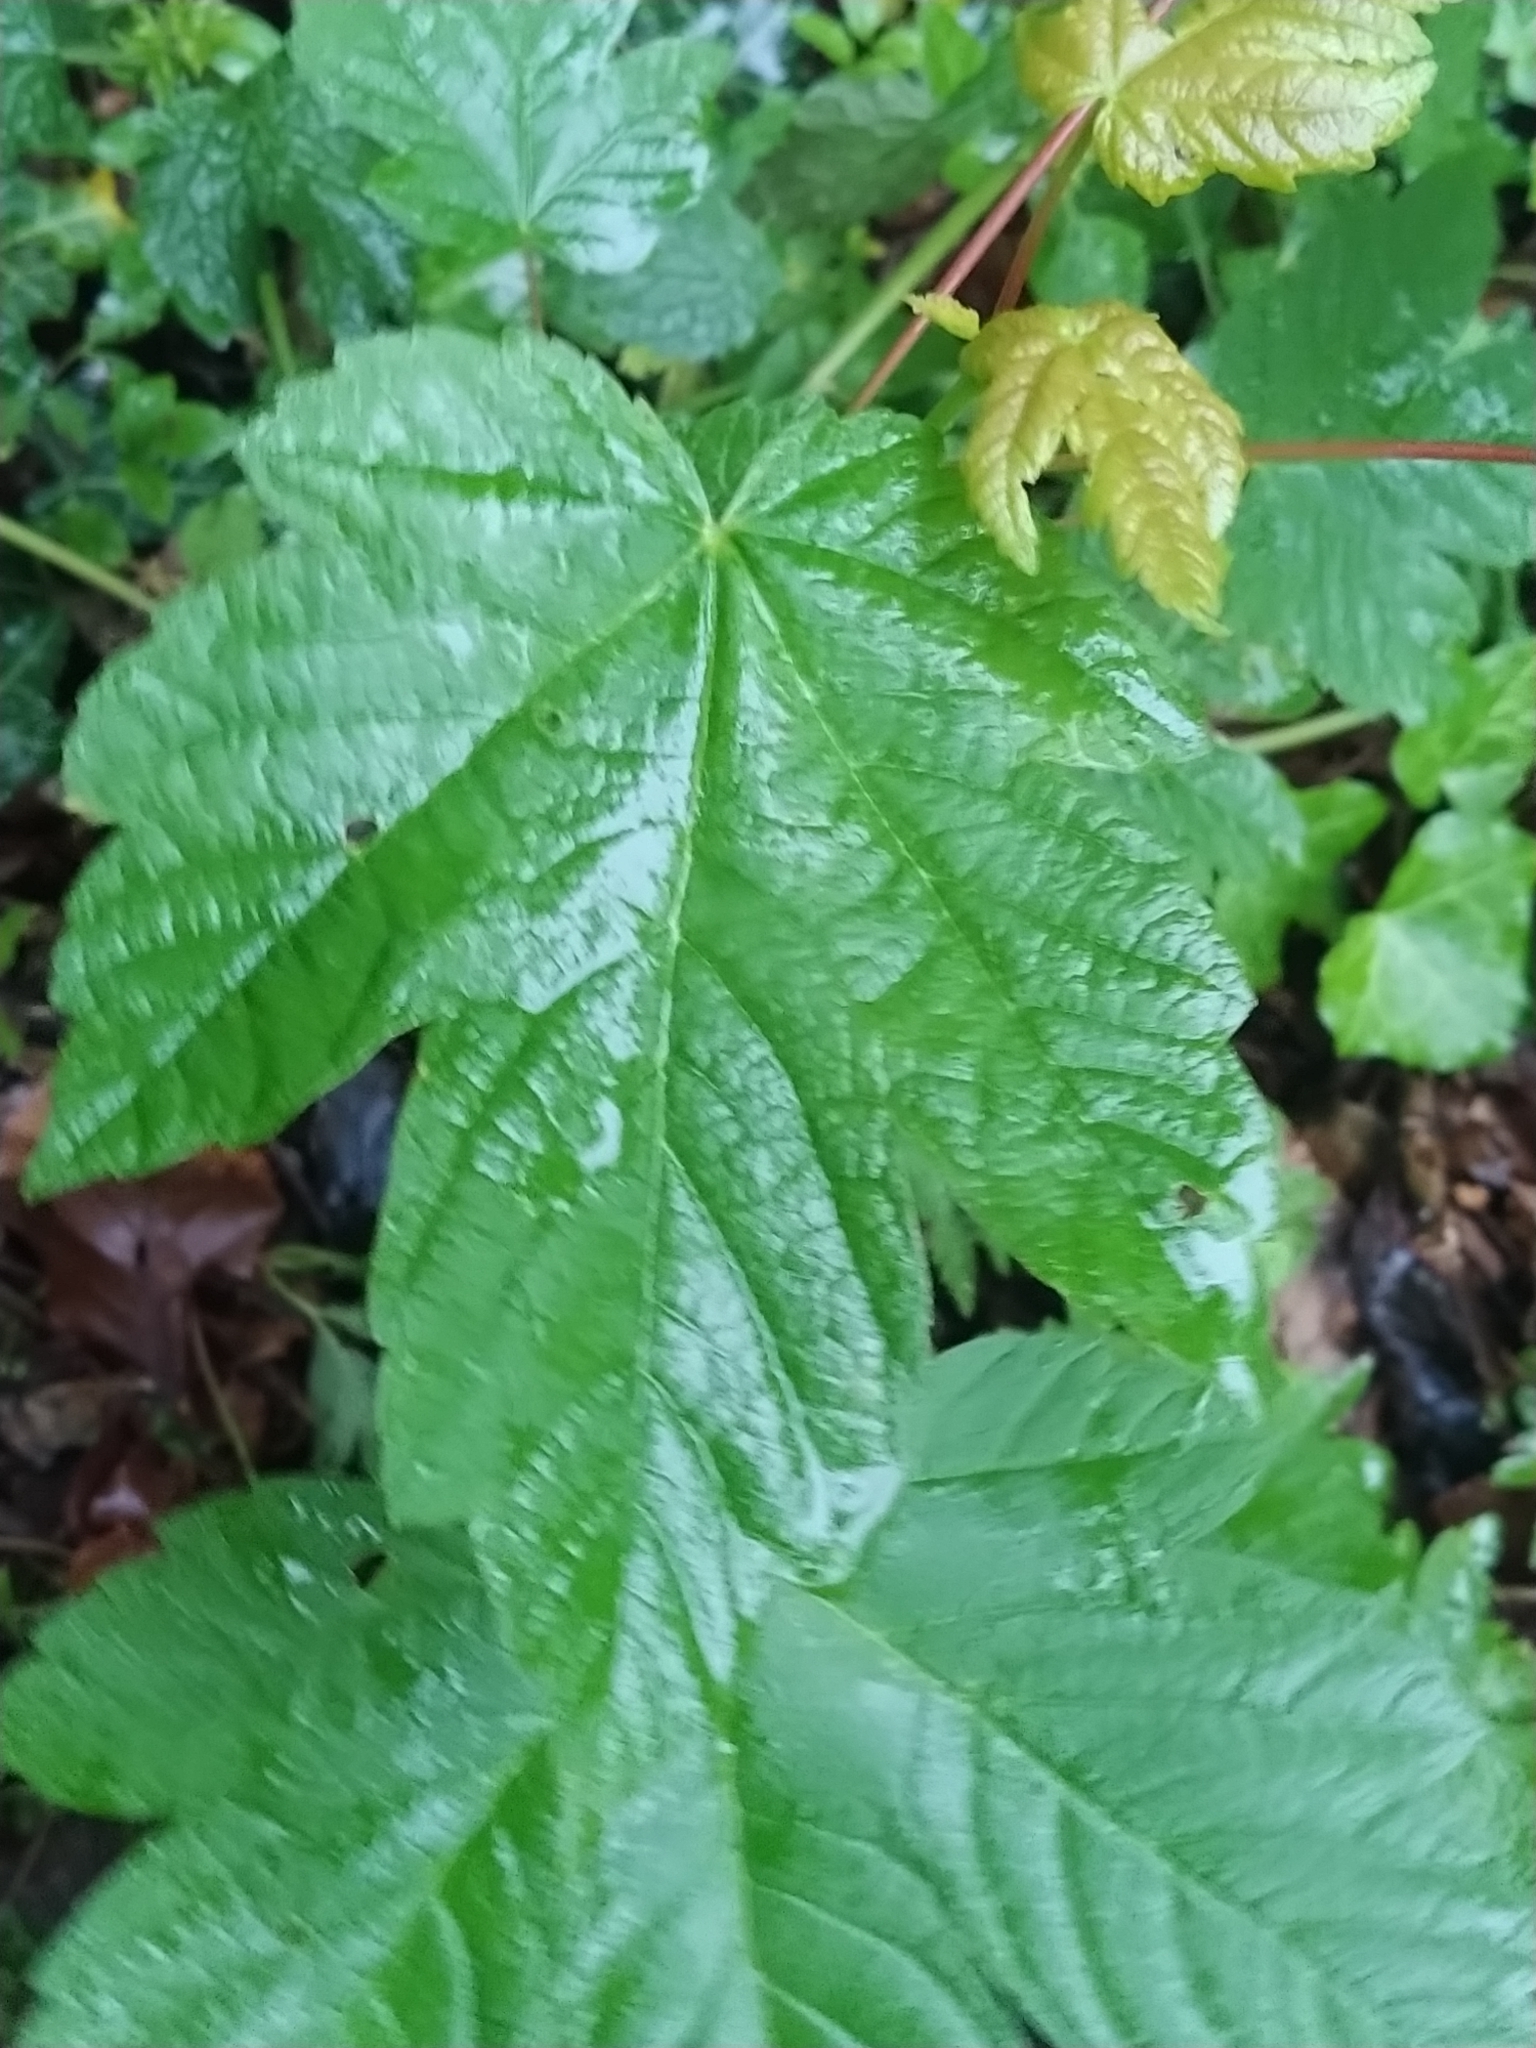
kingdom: Plantae
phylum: Tracheophyta
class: Magnoliopsida
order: Sapindales
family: Sapindaceae
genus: Acer
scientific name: Acer pseudoplatanus
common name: Sycamore
